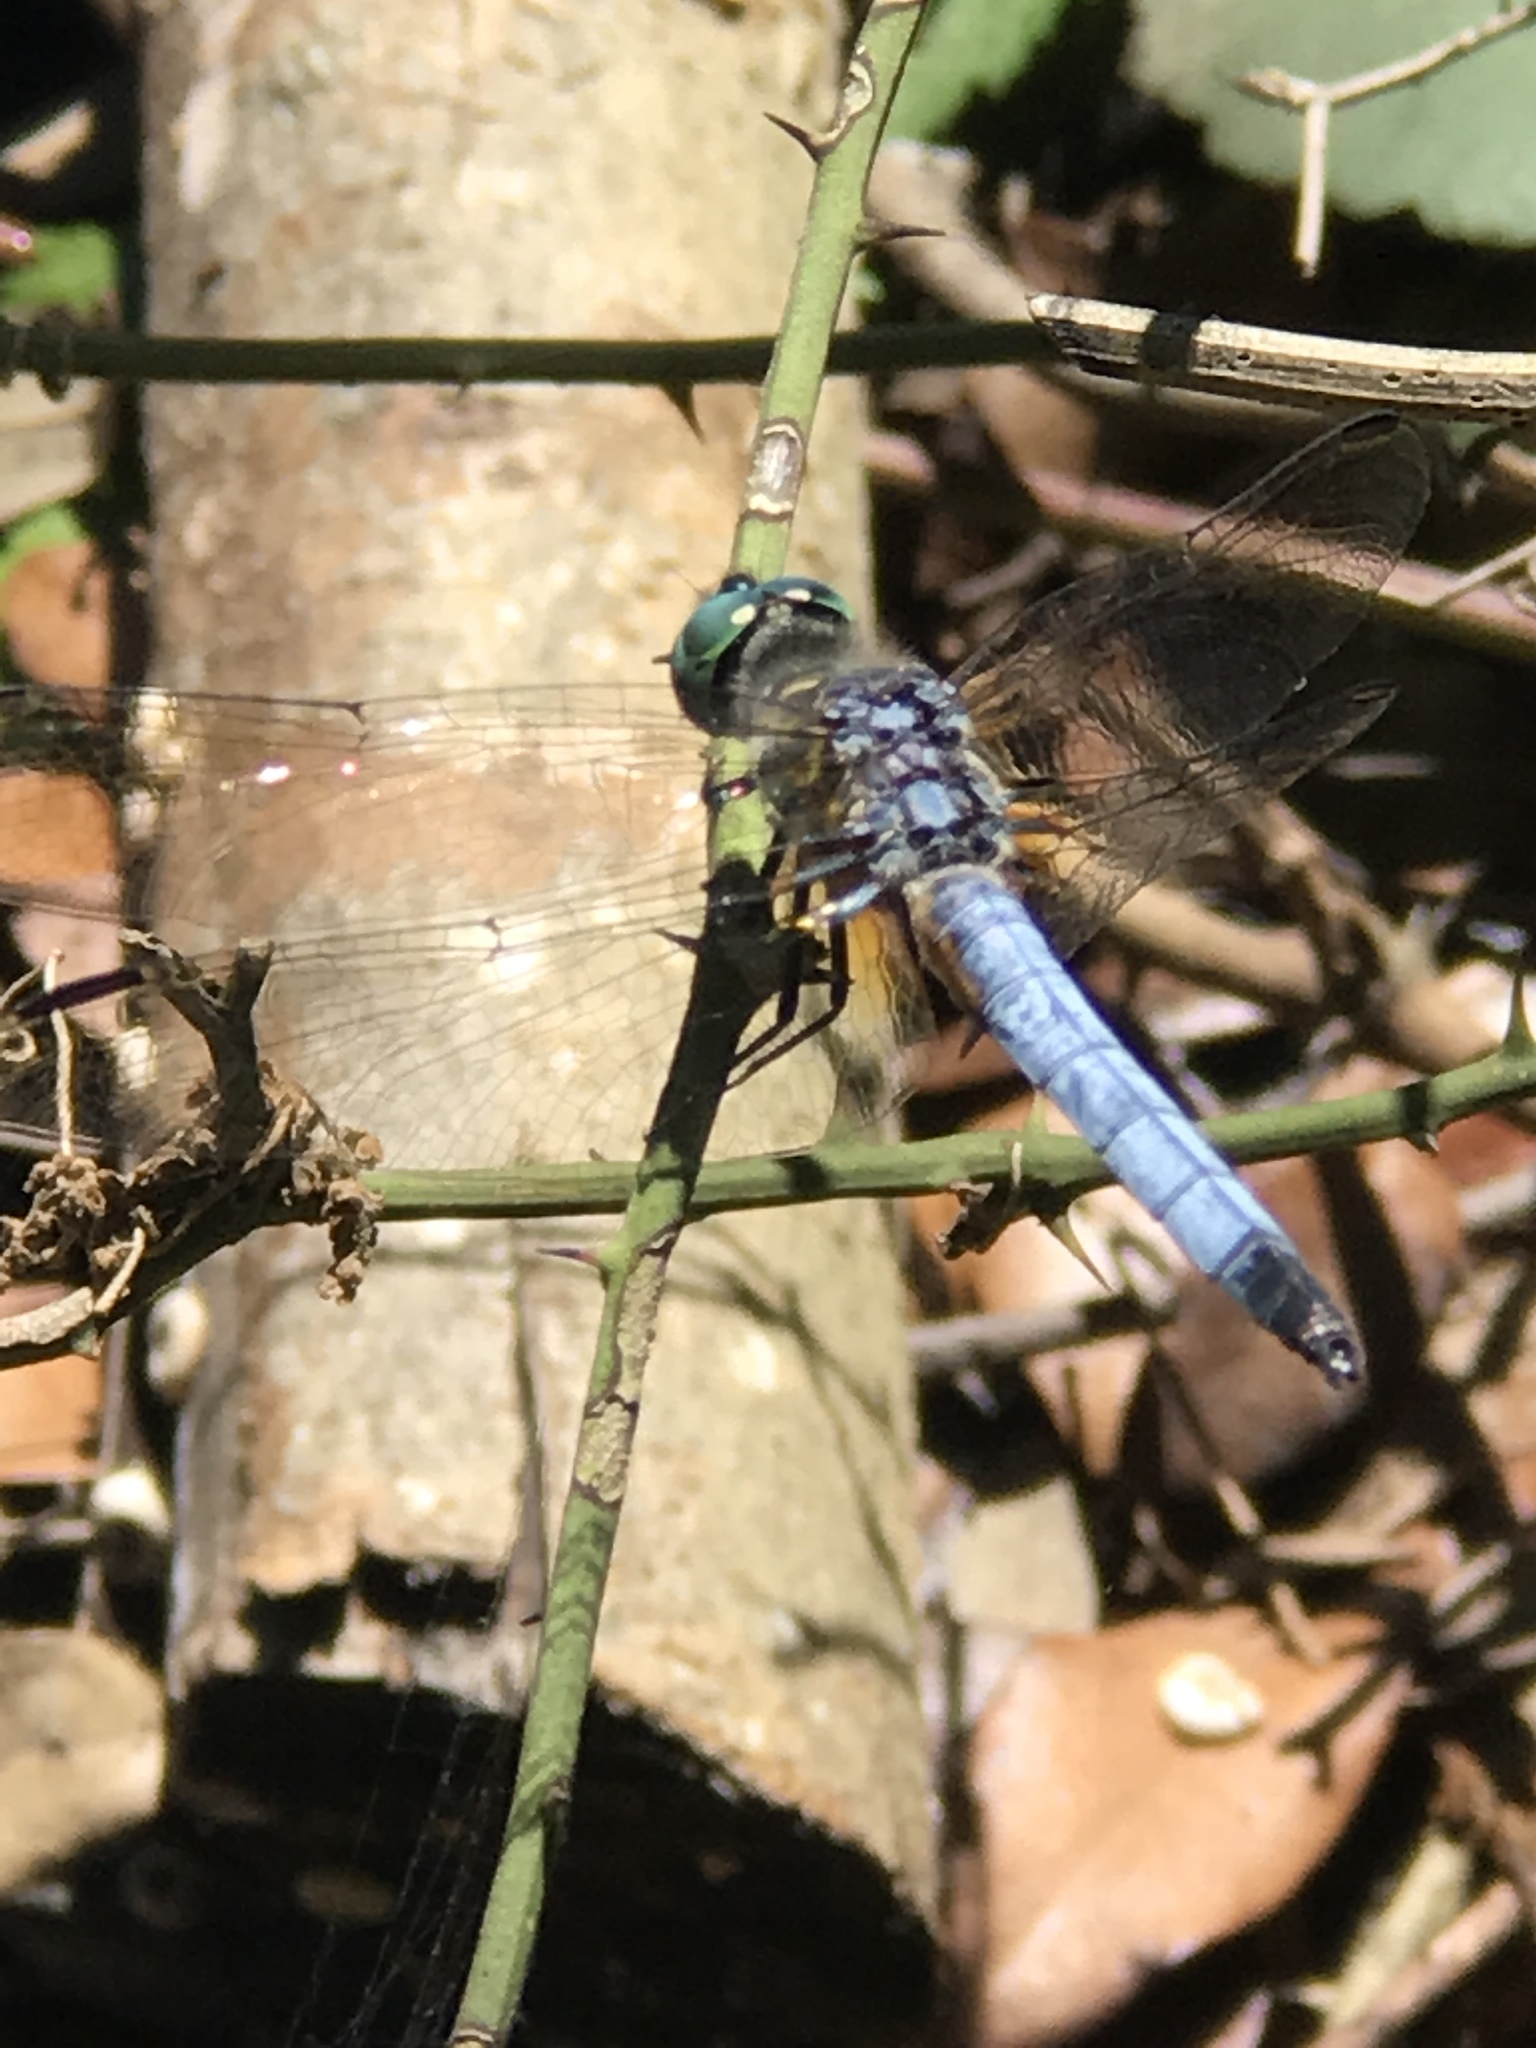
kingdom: Animalia
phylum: Arthropoda
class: Insecta
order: Odonata
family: Libellulidae
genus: Pachydiplax
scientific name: Pachydiplax longipennis
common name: Blue dasher
